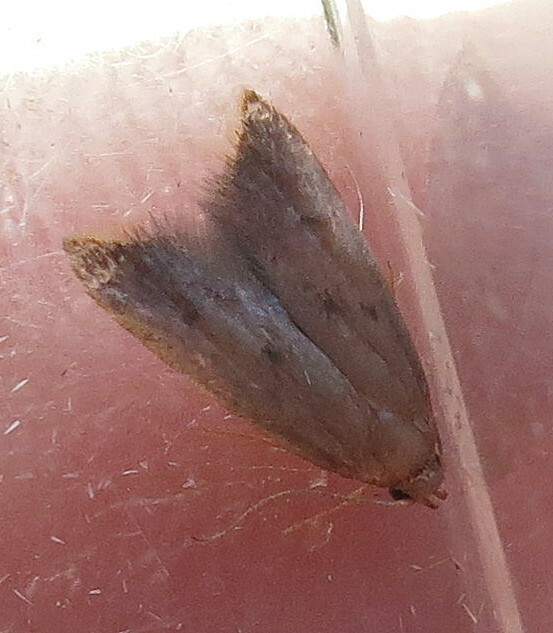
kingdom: Animalia
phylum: Arthropoda
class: Insecta
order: Lepidoptera
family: Oecophoridae
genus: Tachystola
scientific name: Tachystola acroxantha
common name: Ruddy streak
